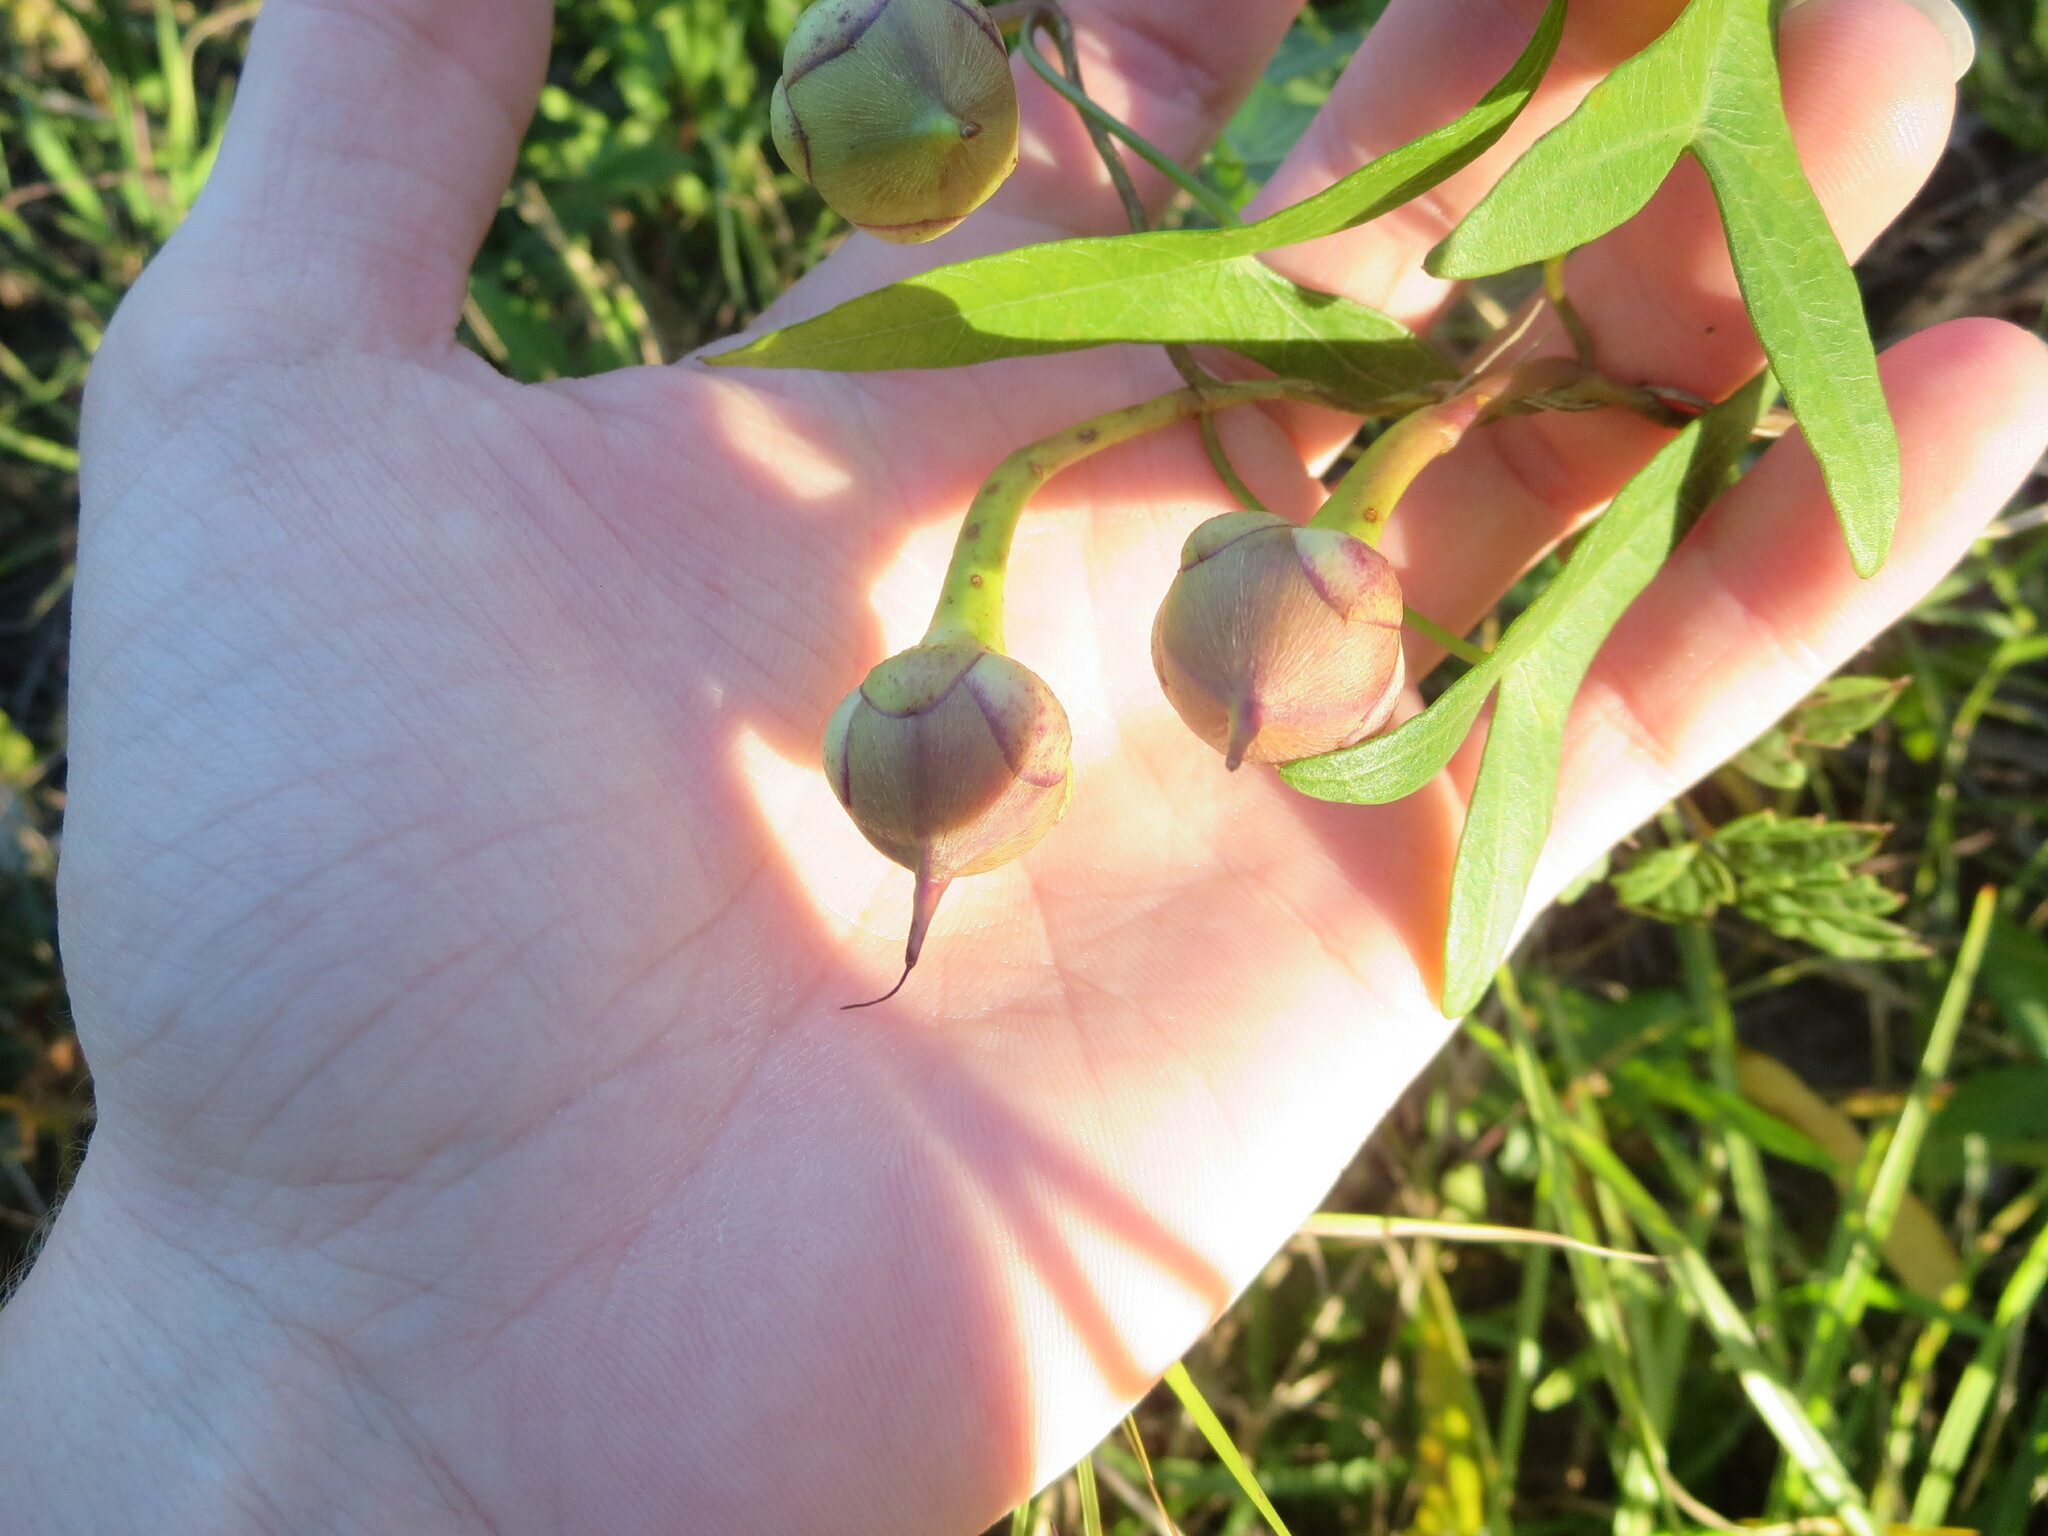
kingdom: Plantae
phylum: Tracheophyta
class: Magnoliopsida
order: Solanales
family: Convolvulaceae
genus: Ipomoea
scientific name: Ipomoea sagittata
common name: Saltmarsh morning glory
